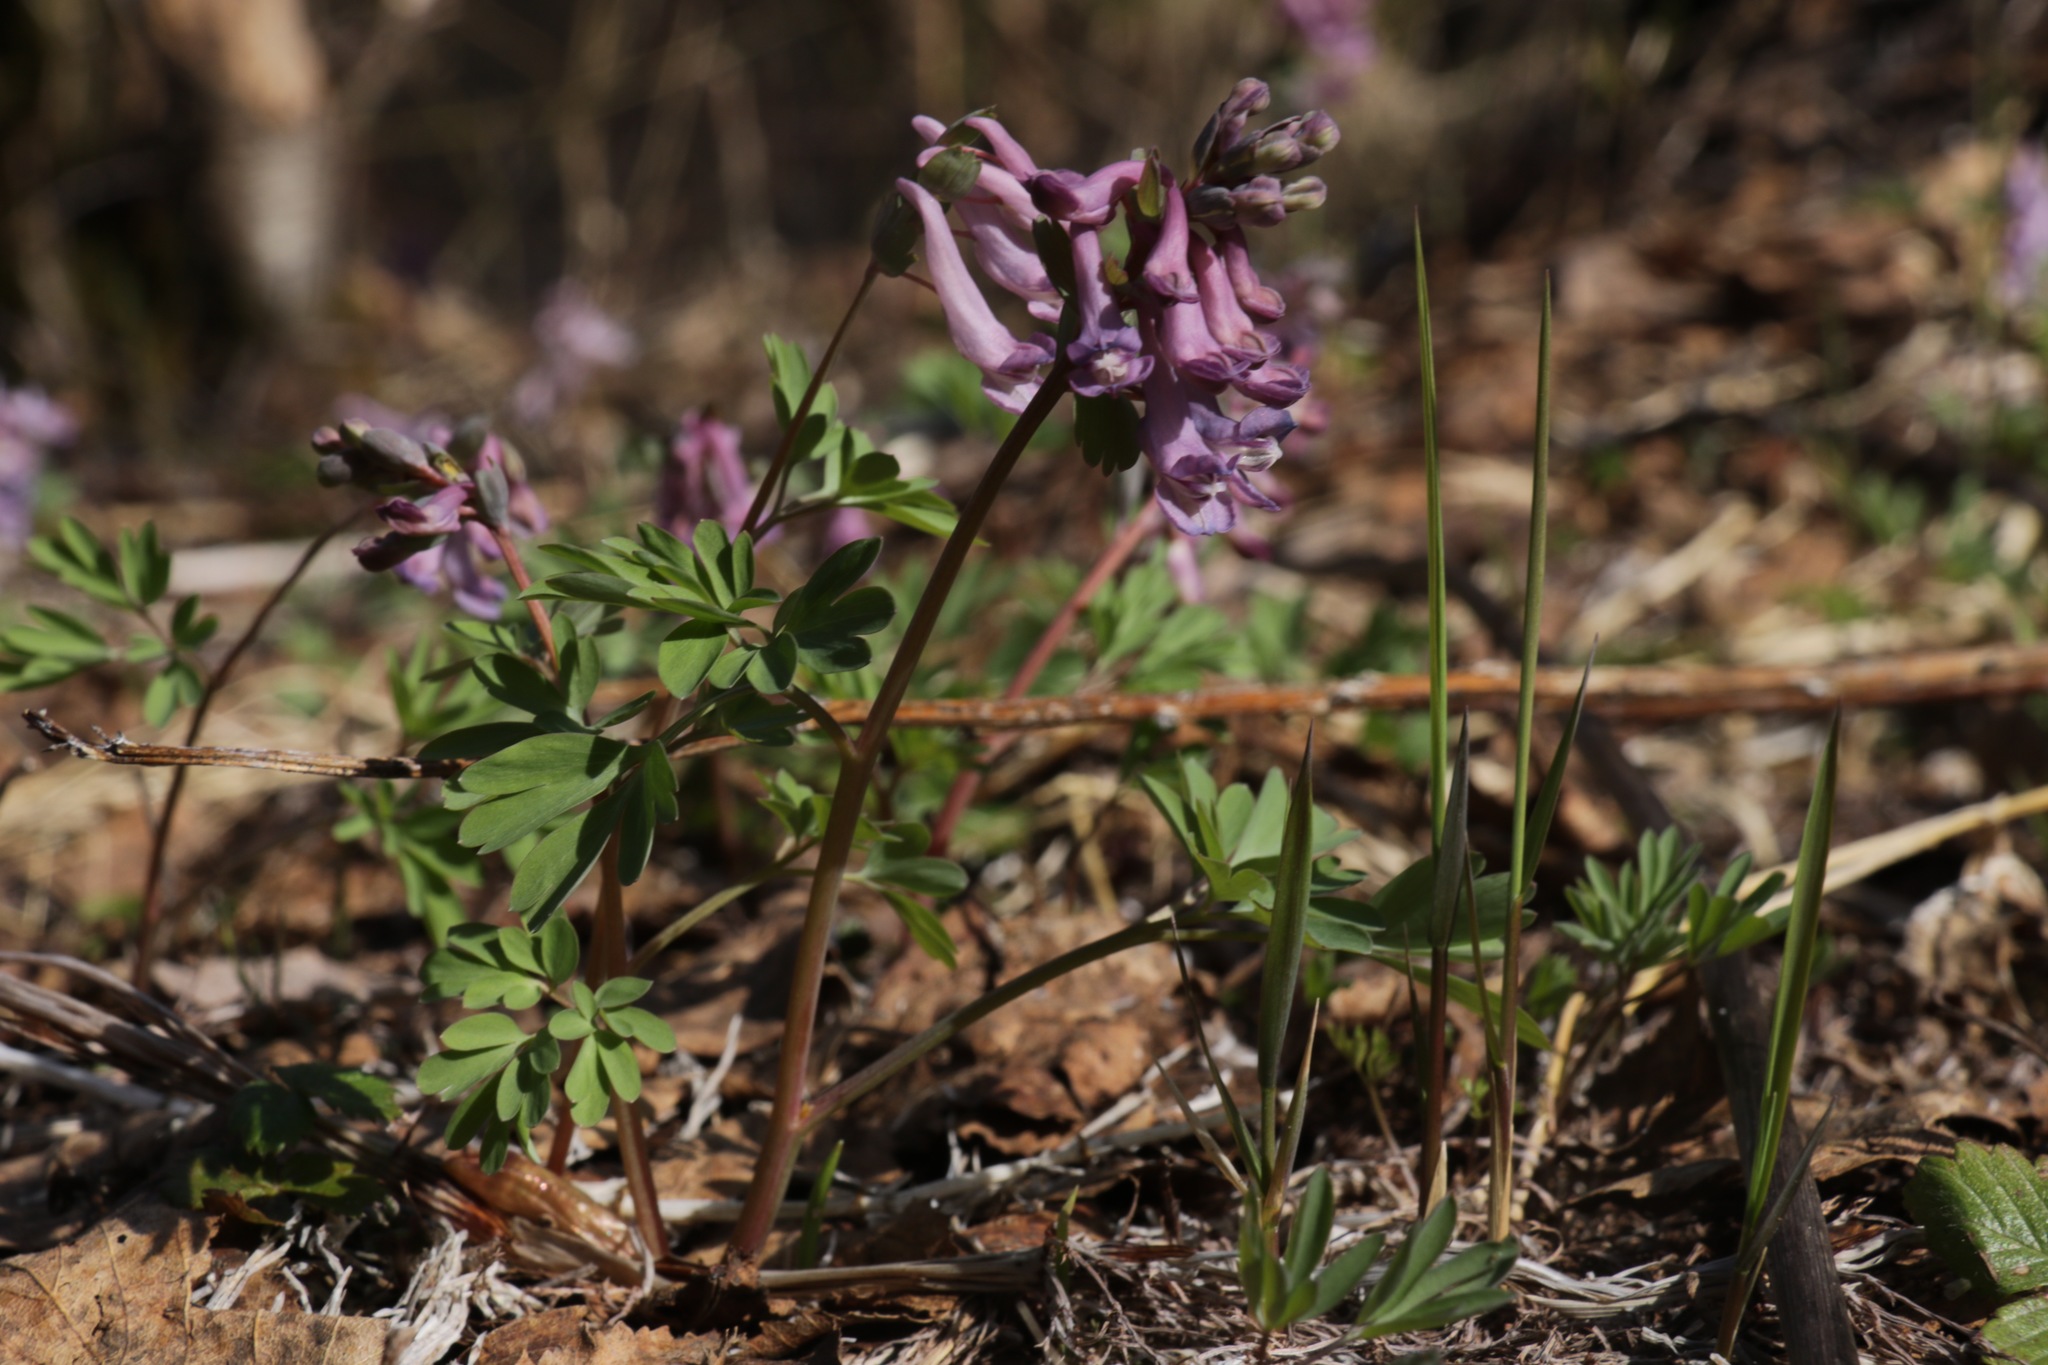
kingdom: Plantae
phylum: Tracheophyta
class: Magnoliopsida
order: Ranunculales
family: Papaveraceae
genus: Corydalis
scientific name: Corydalis solida
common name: Bird-in-a-bush
